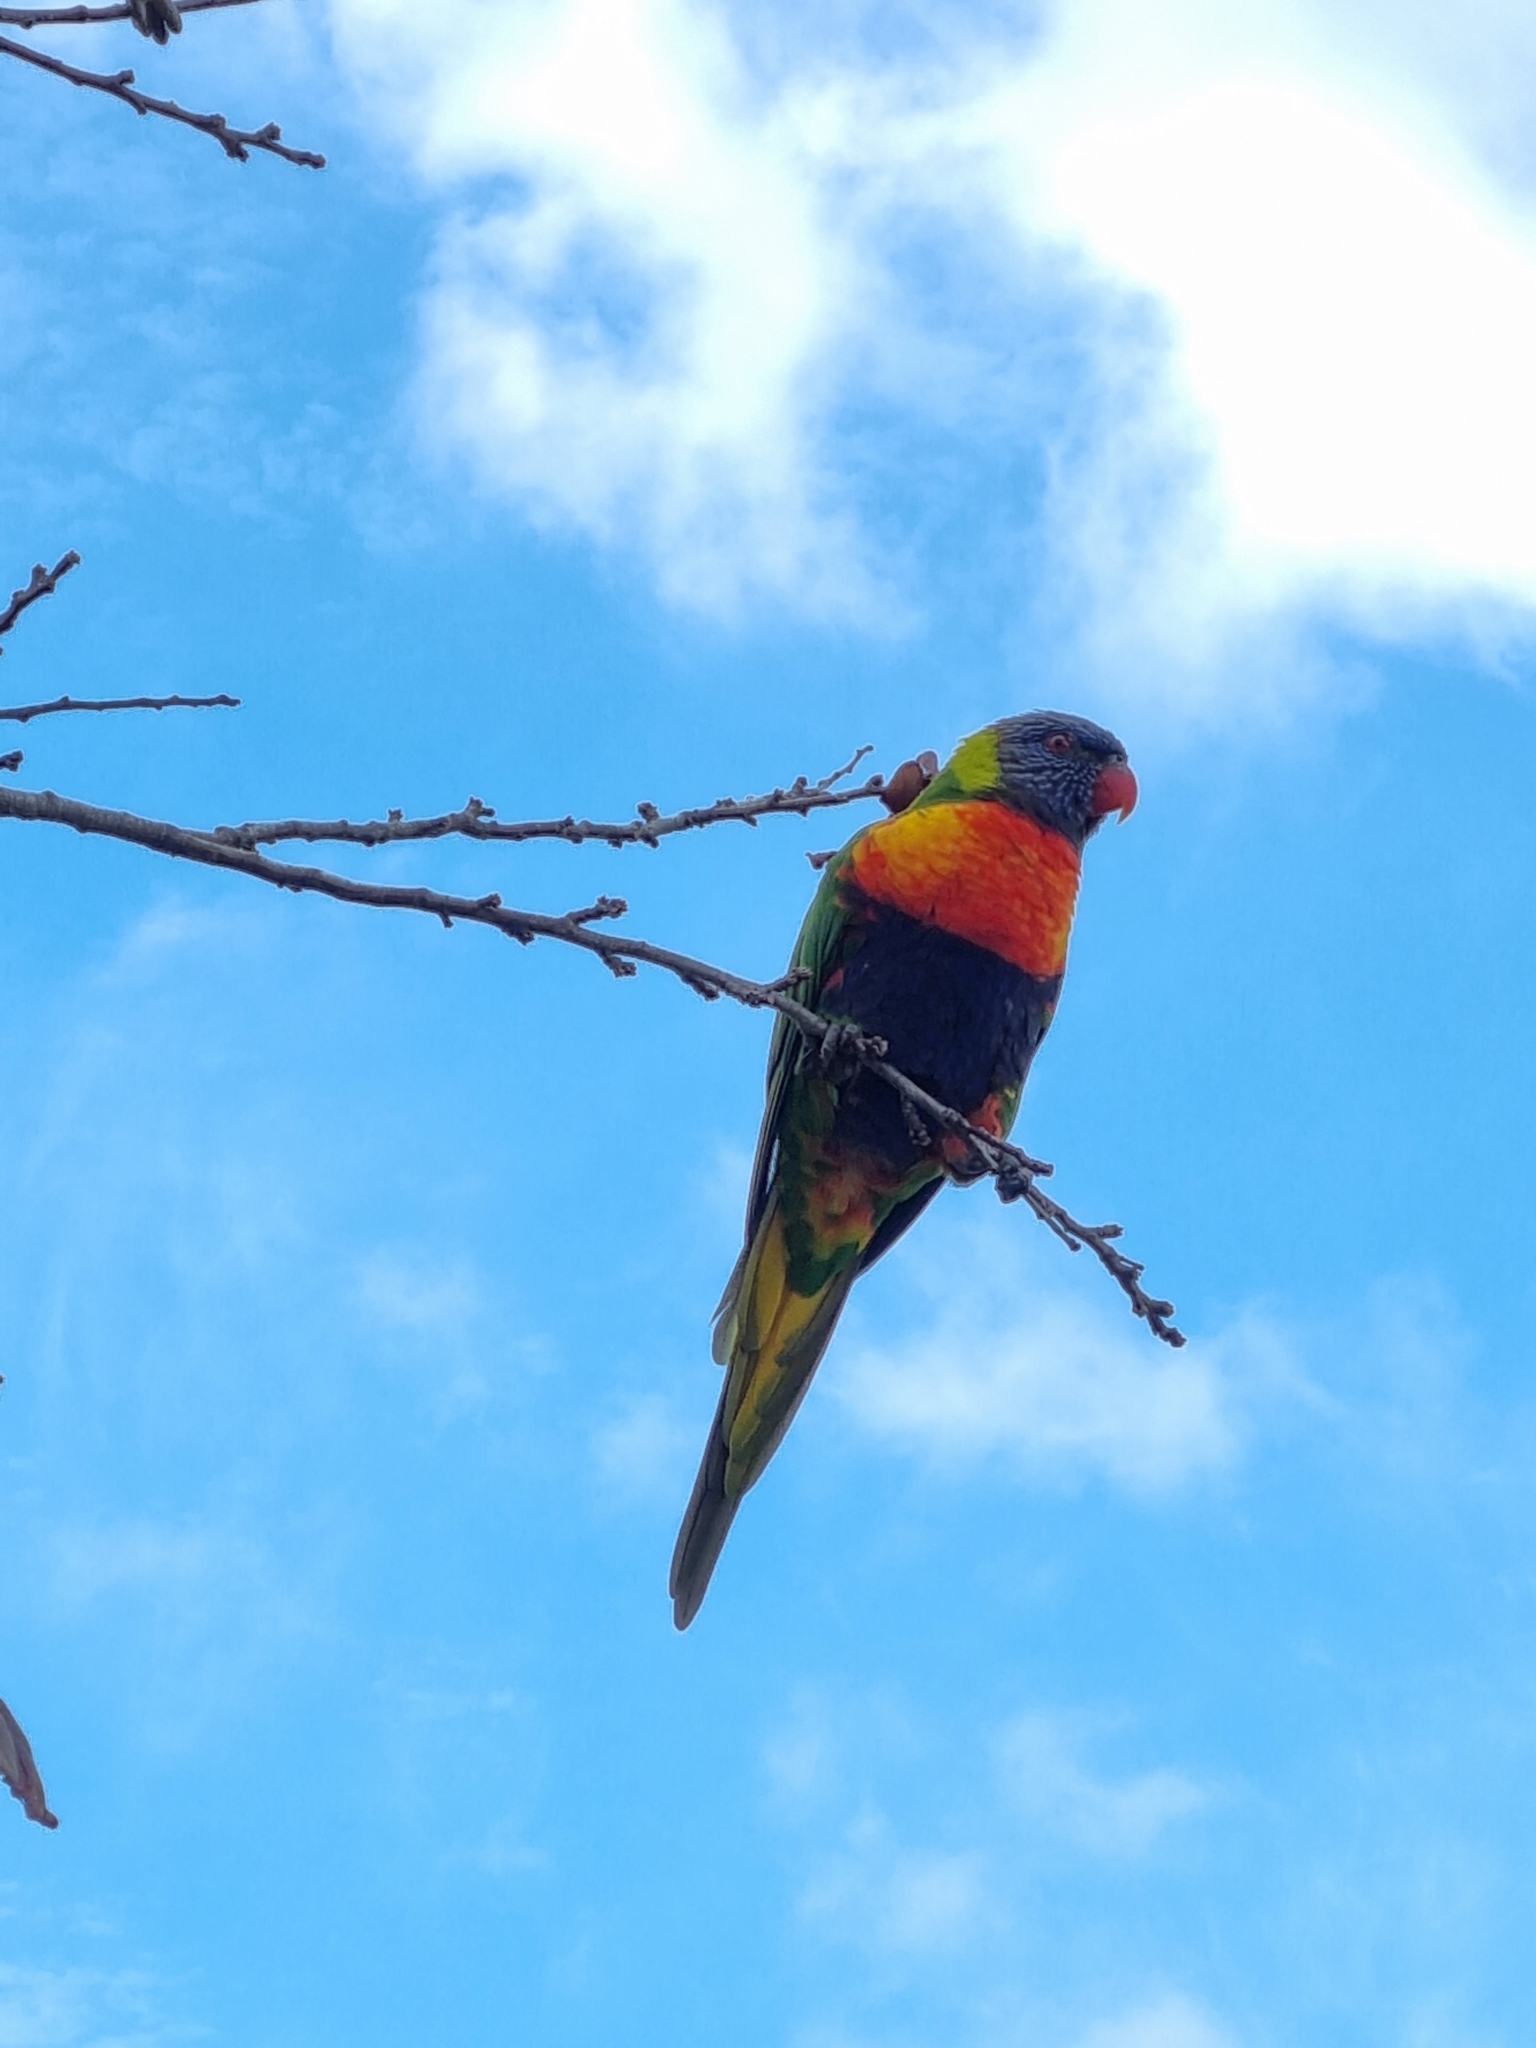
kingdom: Animalia
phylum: Chordata
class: Aves
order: Psittaciformes
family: Psittacidae
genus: Trichoglossus
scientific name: Trichoglossus haematodus
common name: Coconut lorikeet
